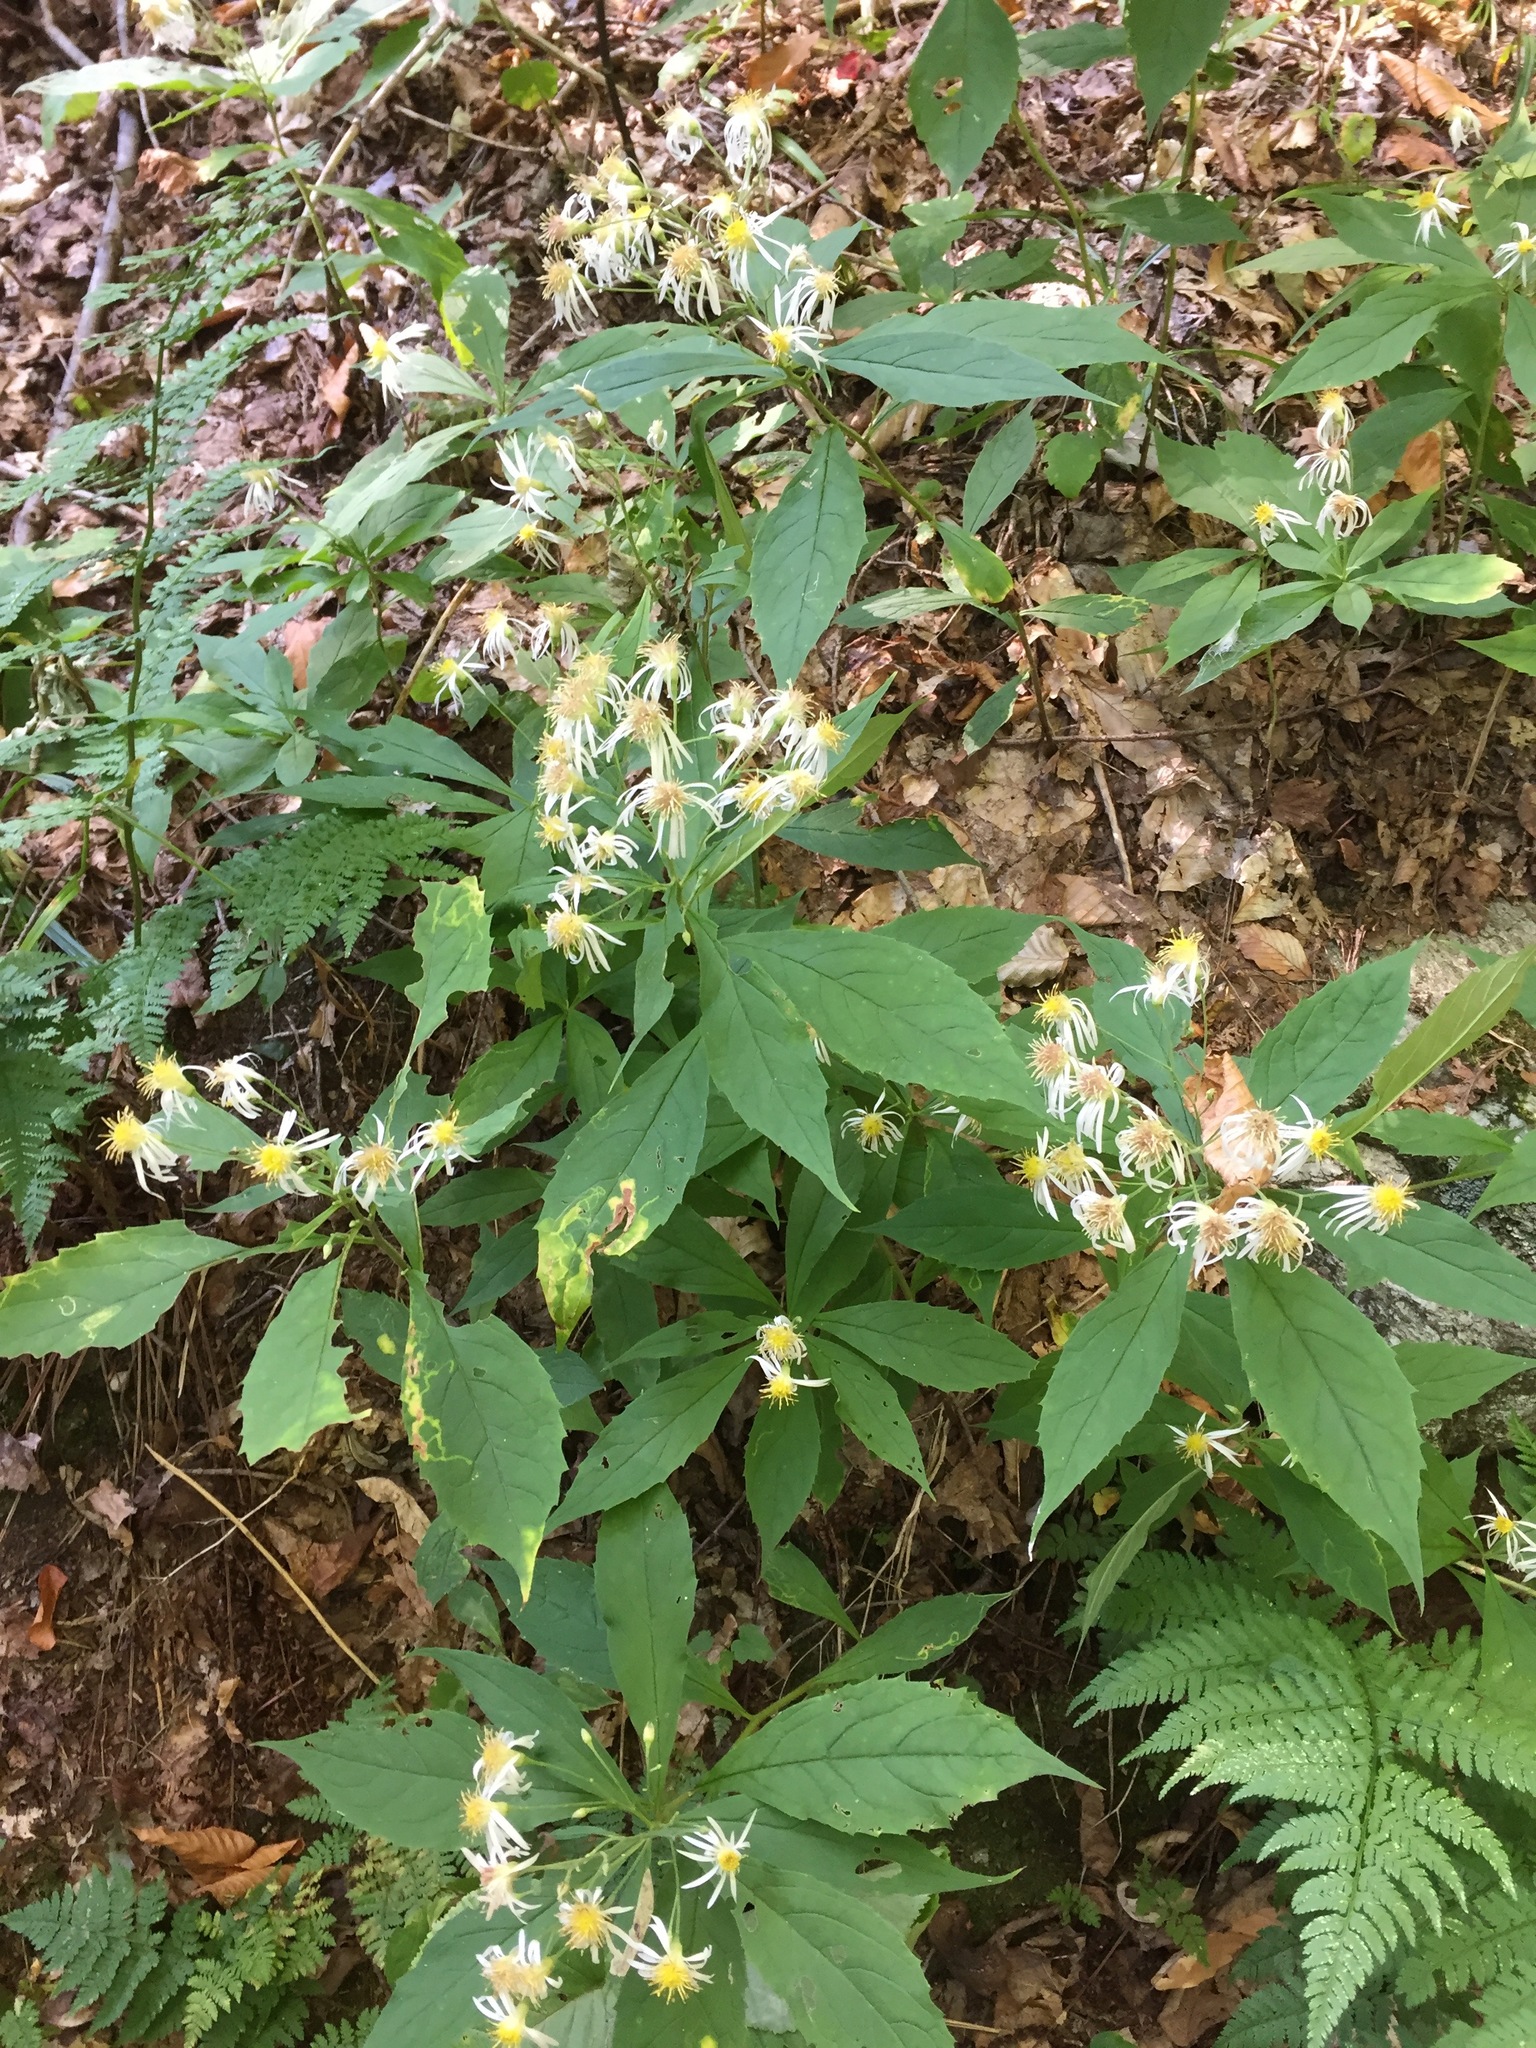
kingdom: Plantae
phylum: Tracheophyta
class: Magnoliopsida
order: Asterales
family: Asteraceae
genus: Oclemena
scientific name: Oclemena acuminata
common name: Mountain aster
